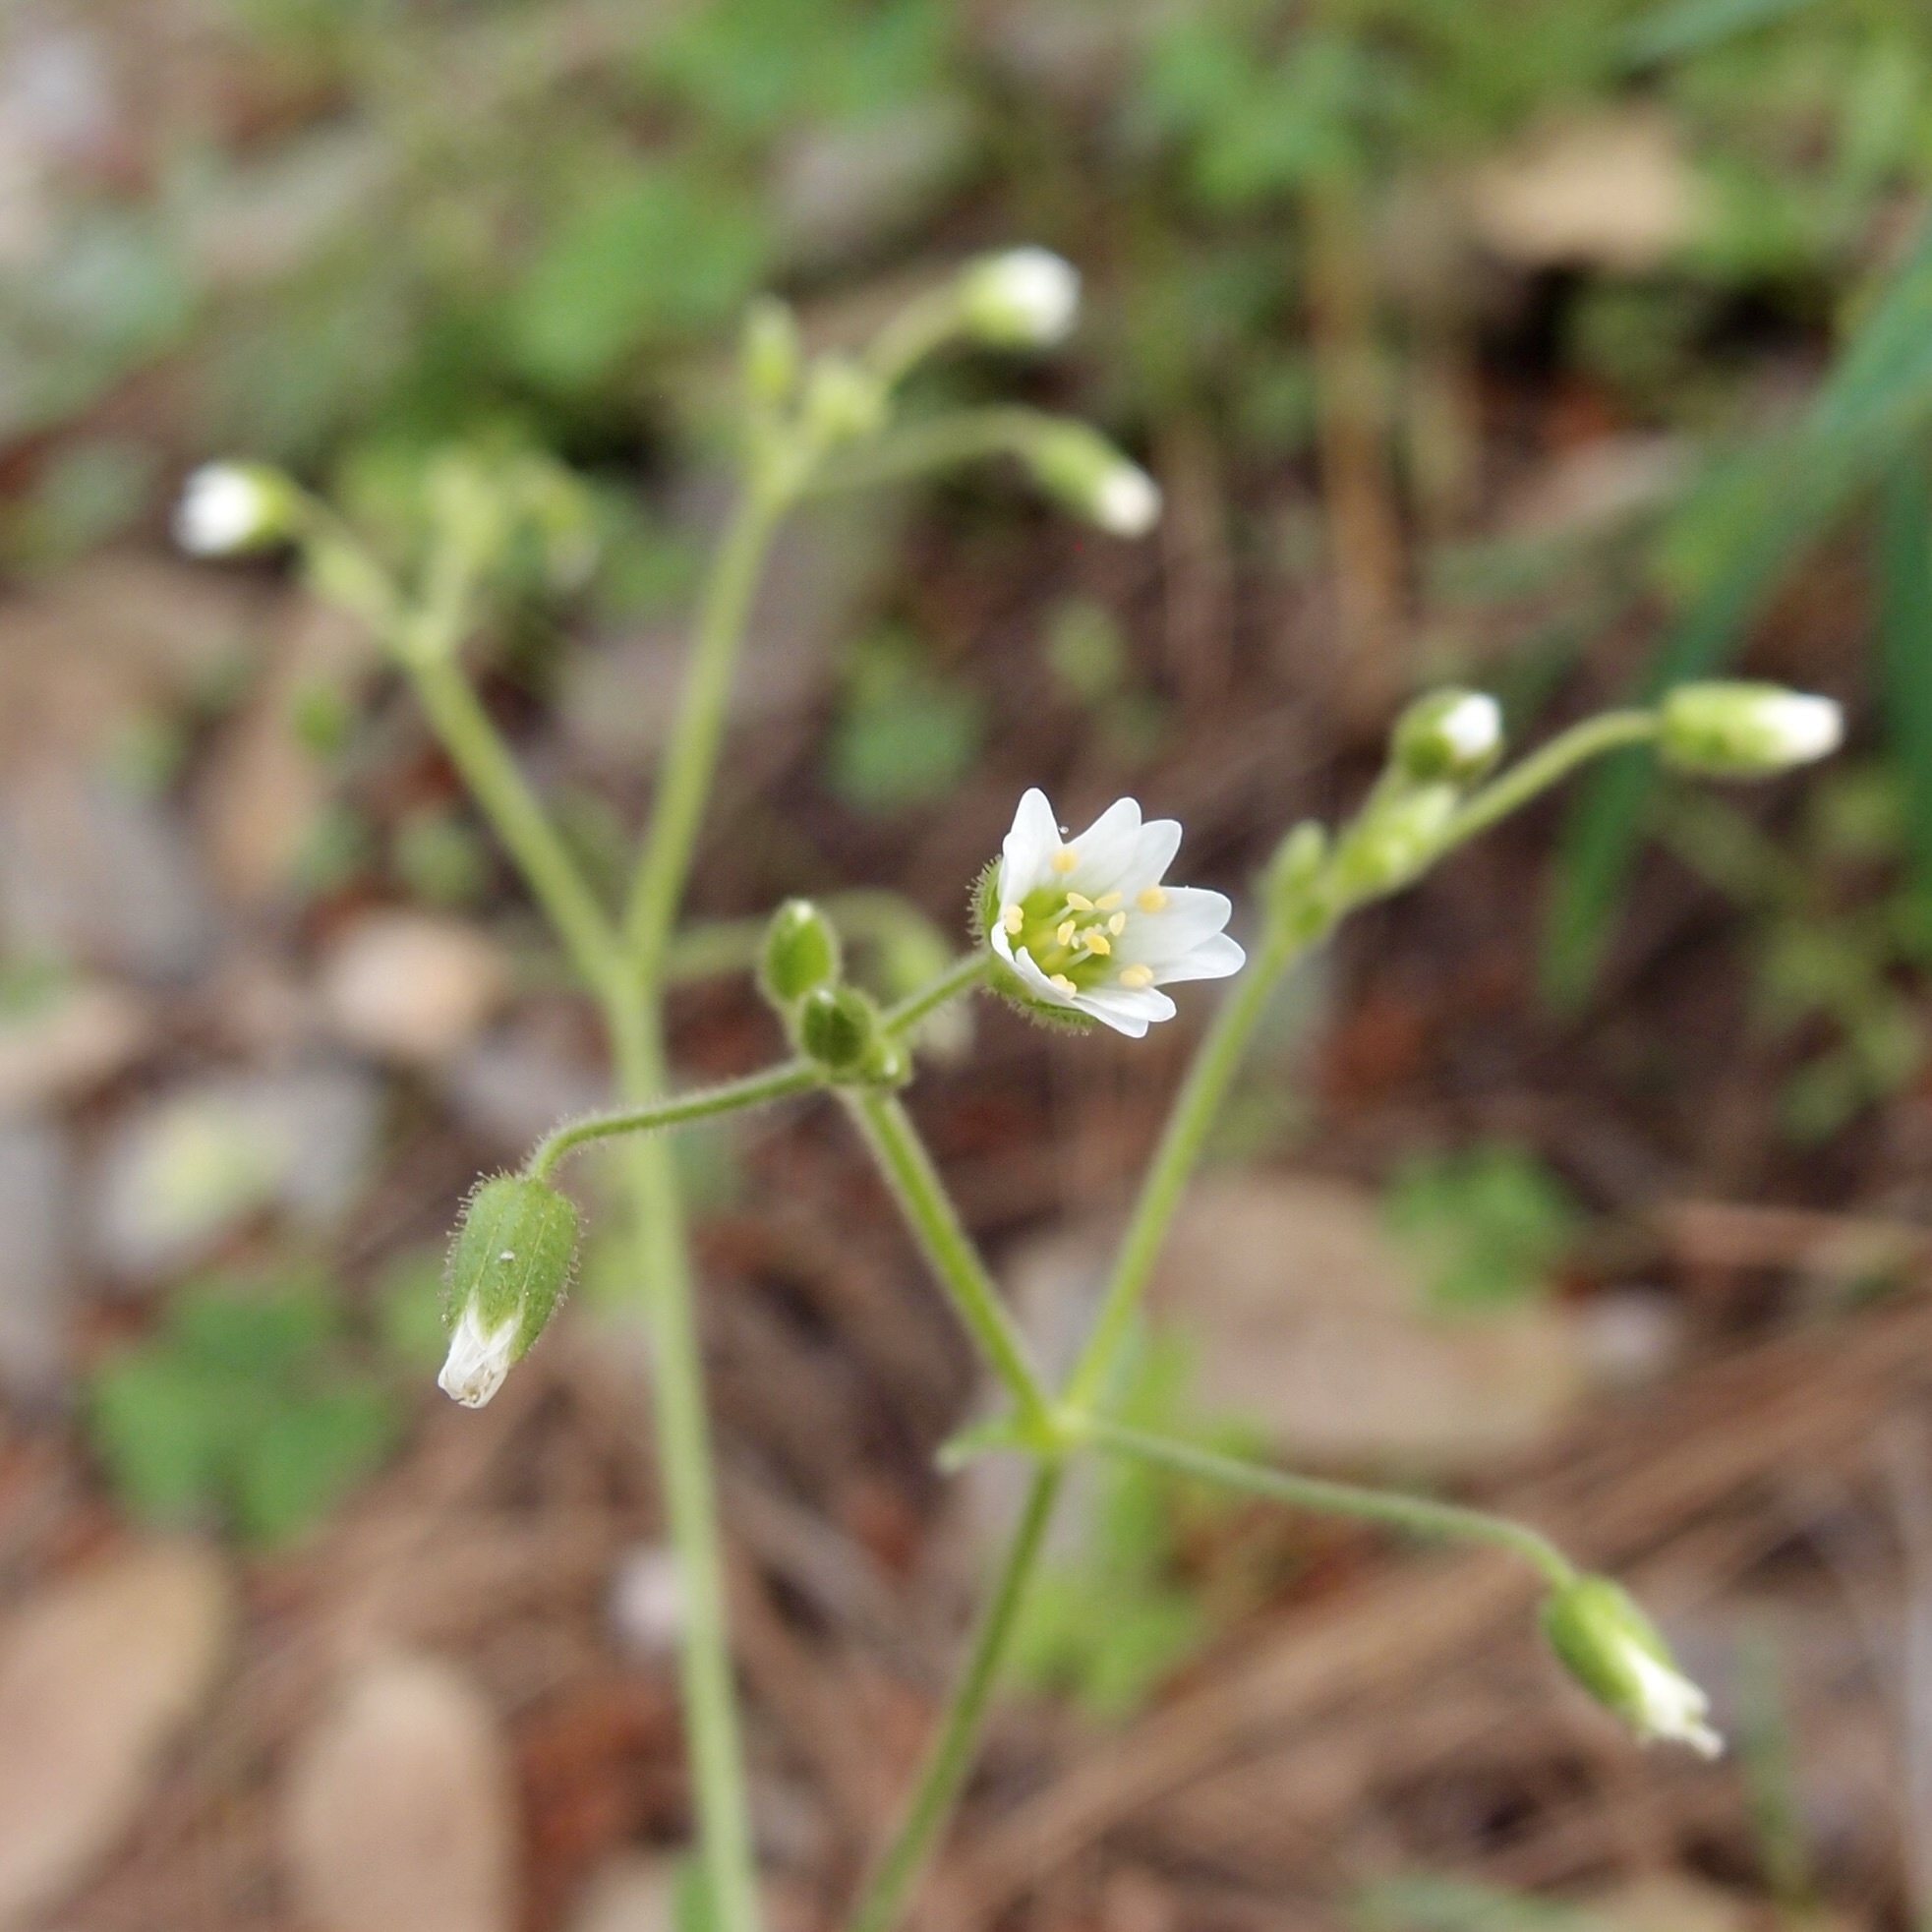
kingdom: Plantae
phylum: Tracheophyta
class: Magnoliopsida
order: Caryophyllales
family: Caryophyllaceae
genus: Cerastium
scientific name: Cerastium nutans
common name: Long-stalked chickweed
